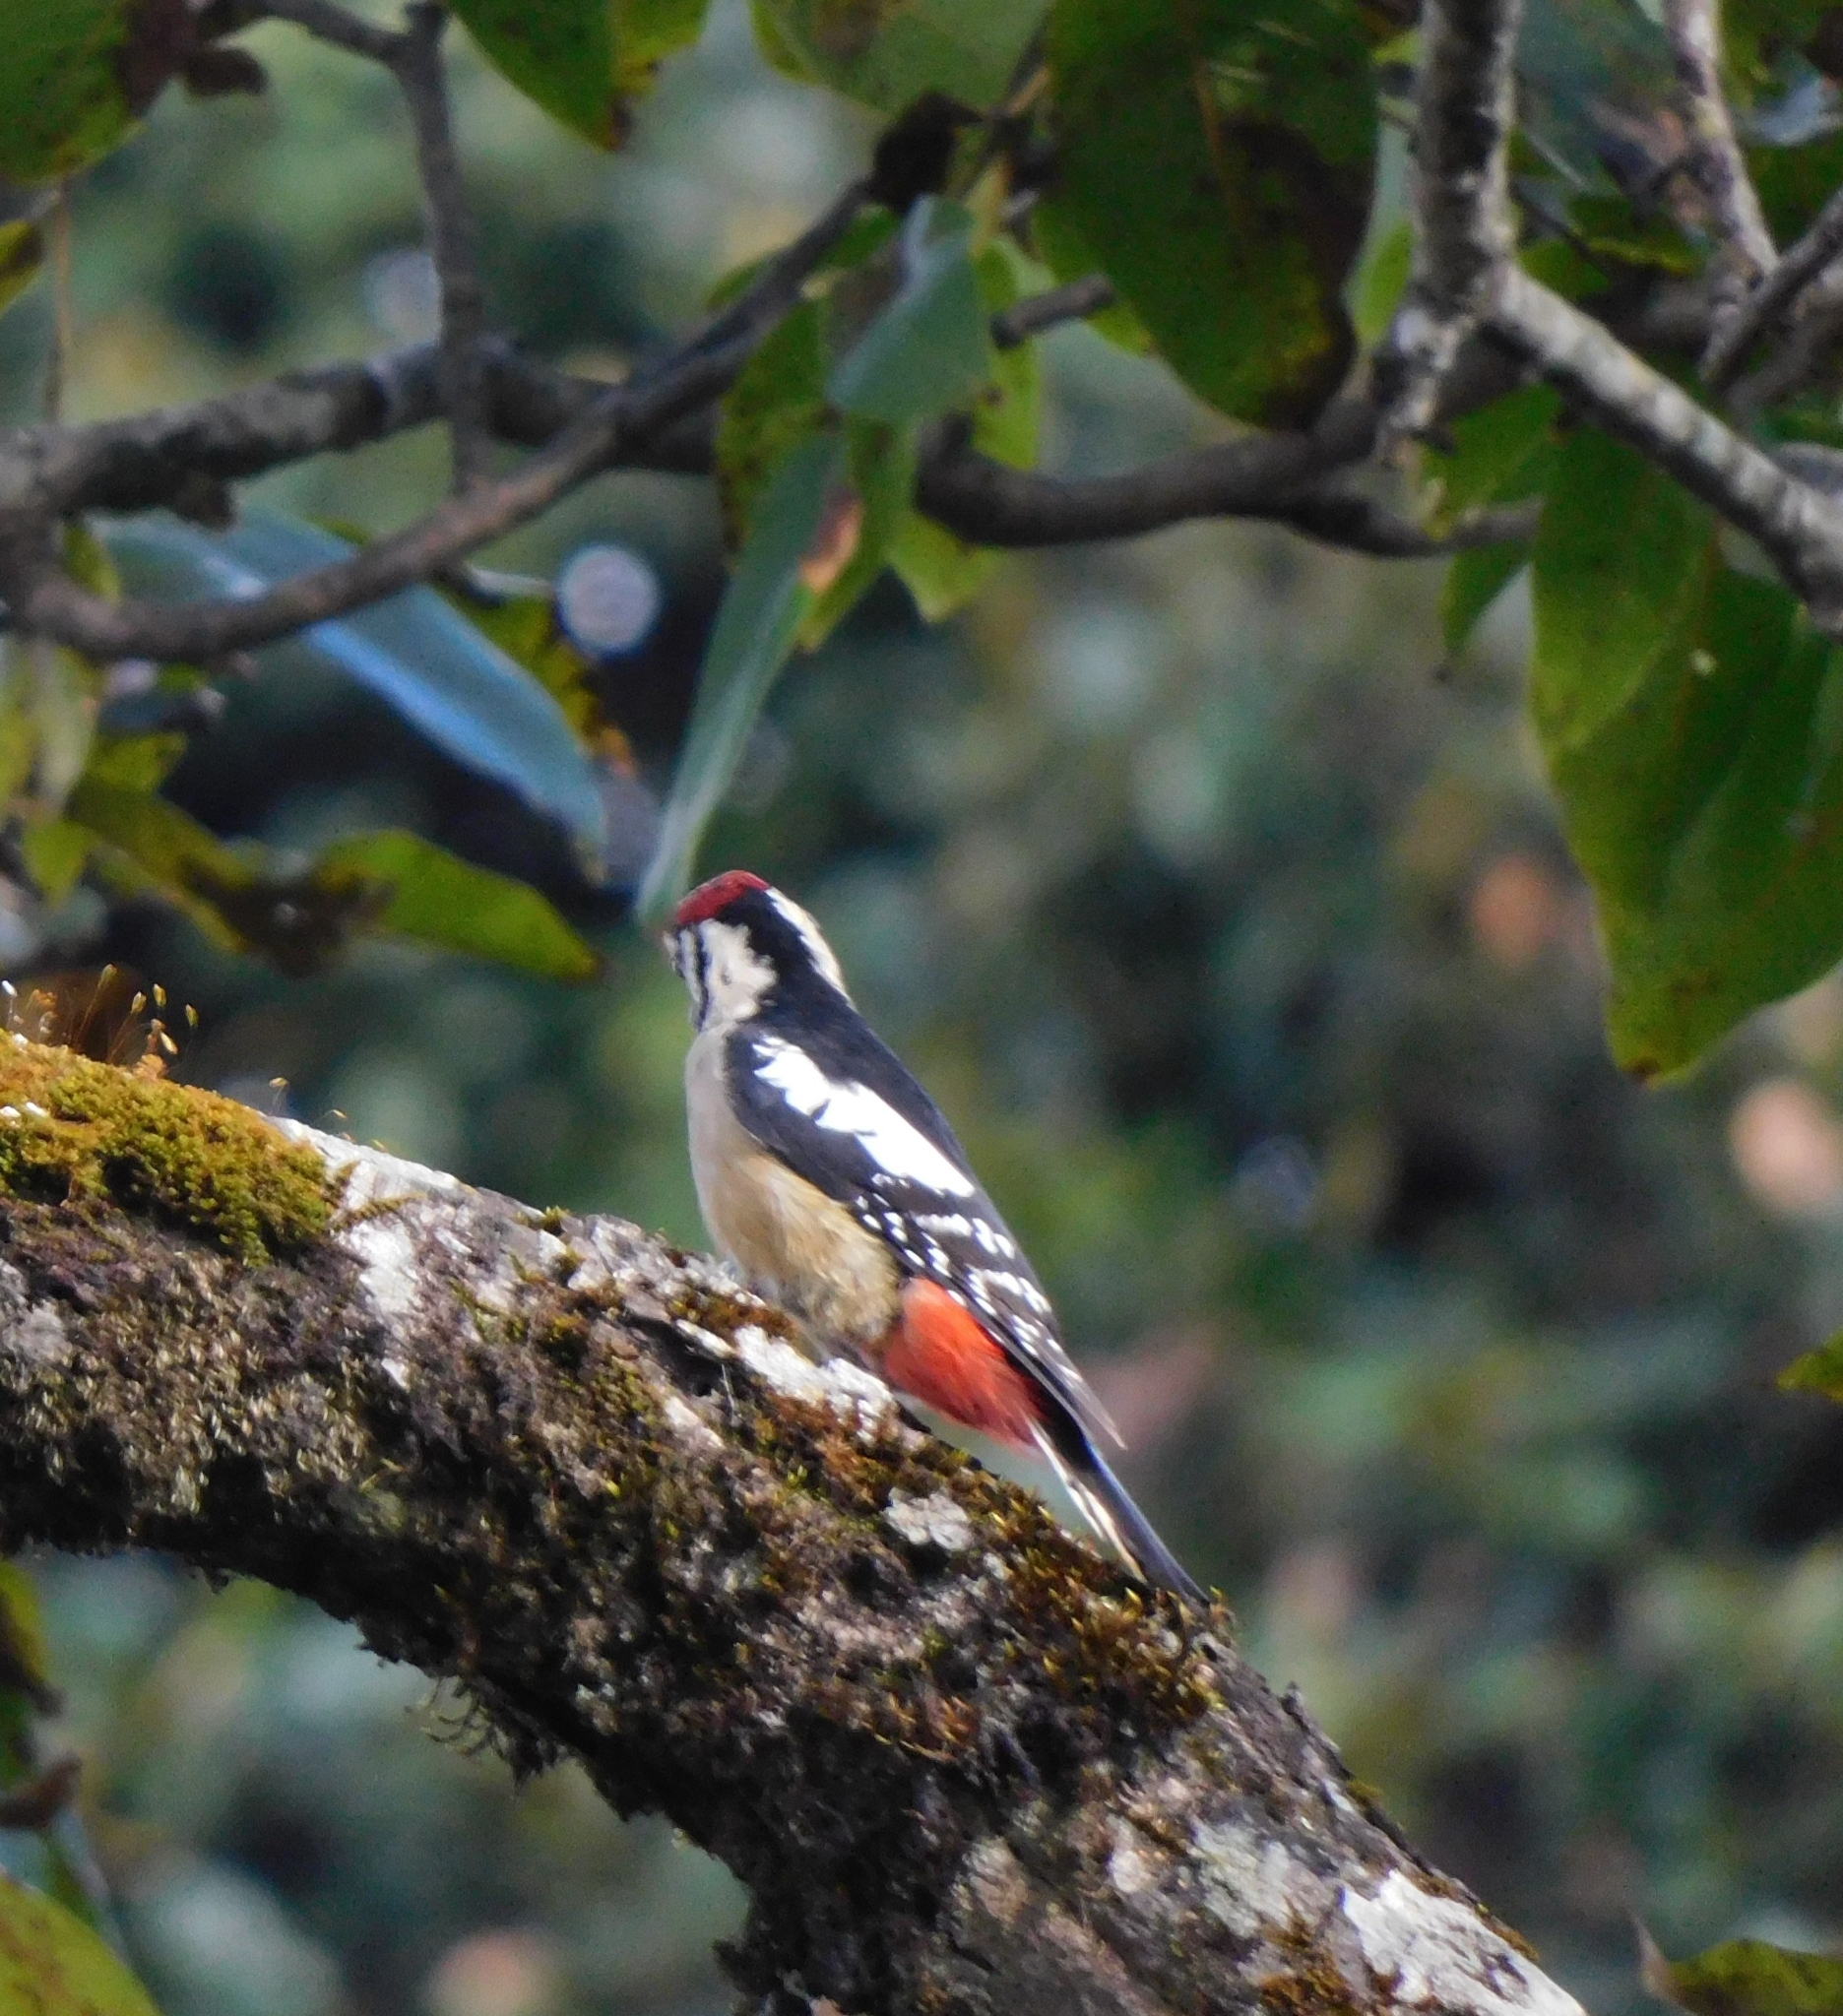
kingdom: Animalia
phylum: Chordata
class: Aves
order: Piciformes
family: Picidae
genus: Dendrocopos
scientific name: Dendrocopos himalayensis
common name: Himalayan woodpecker
